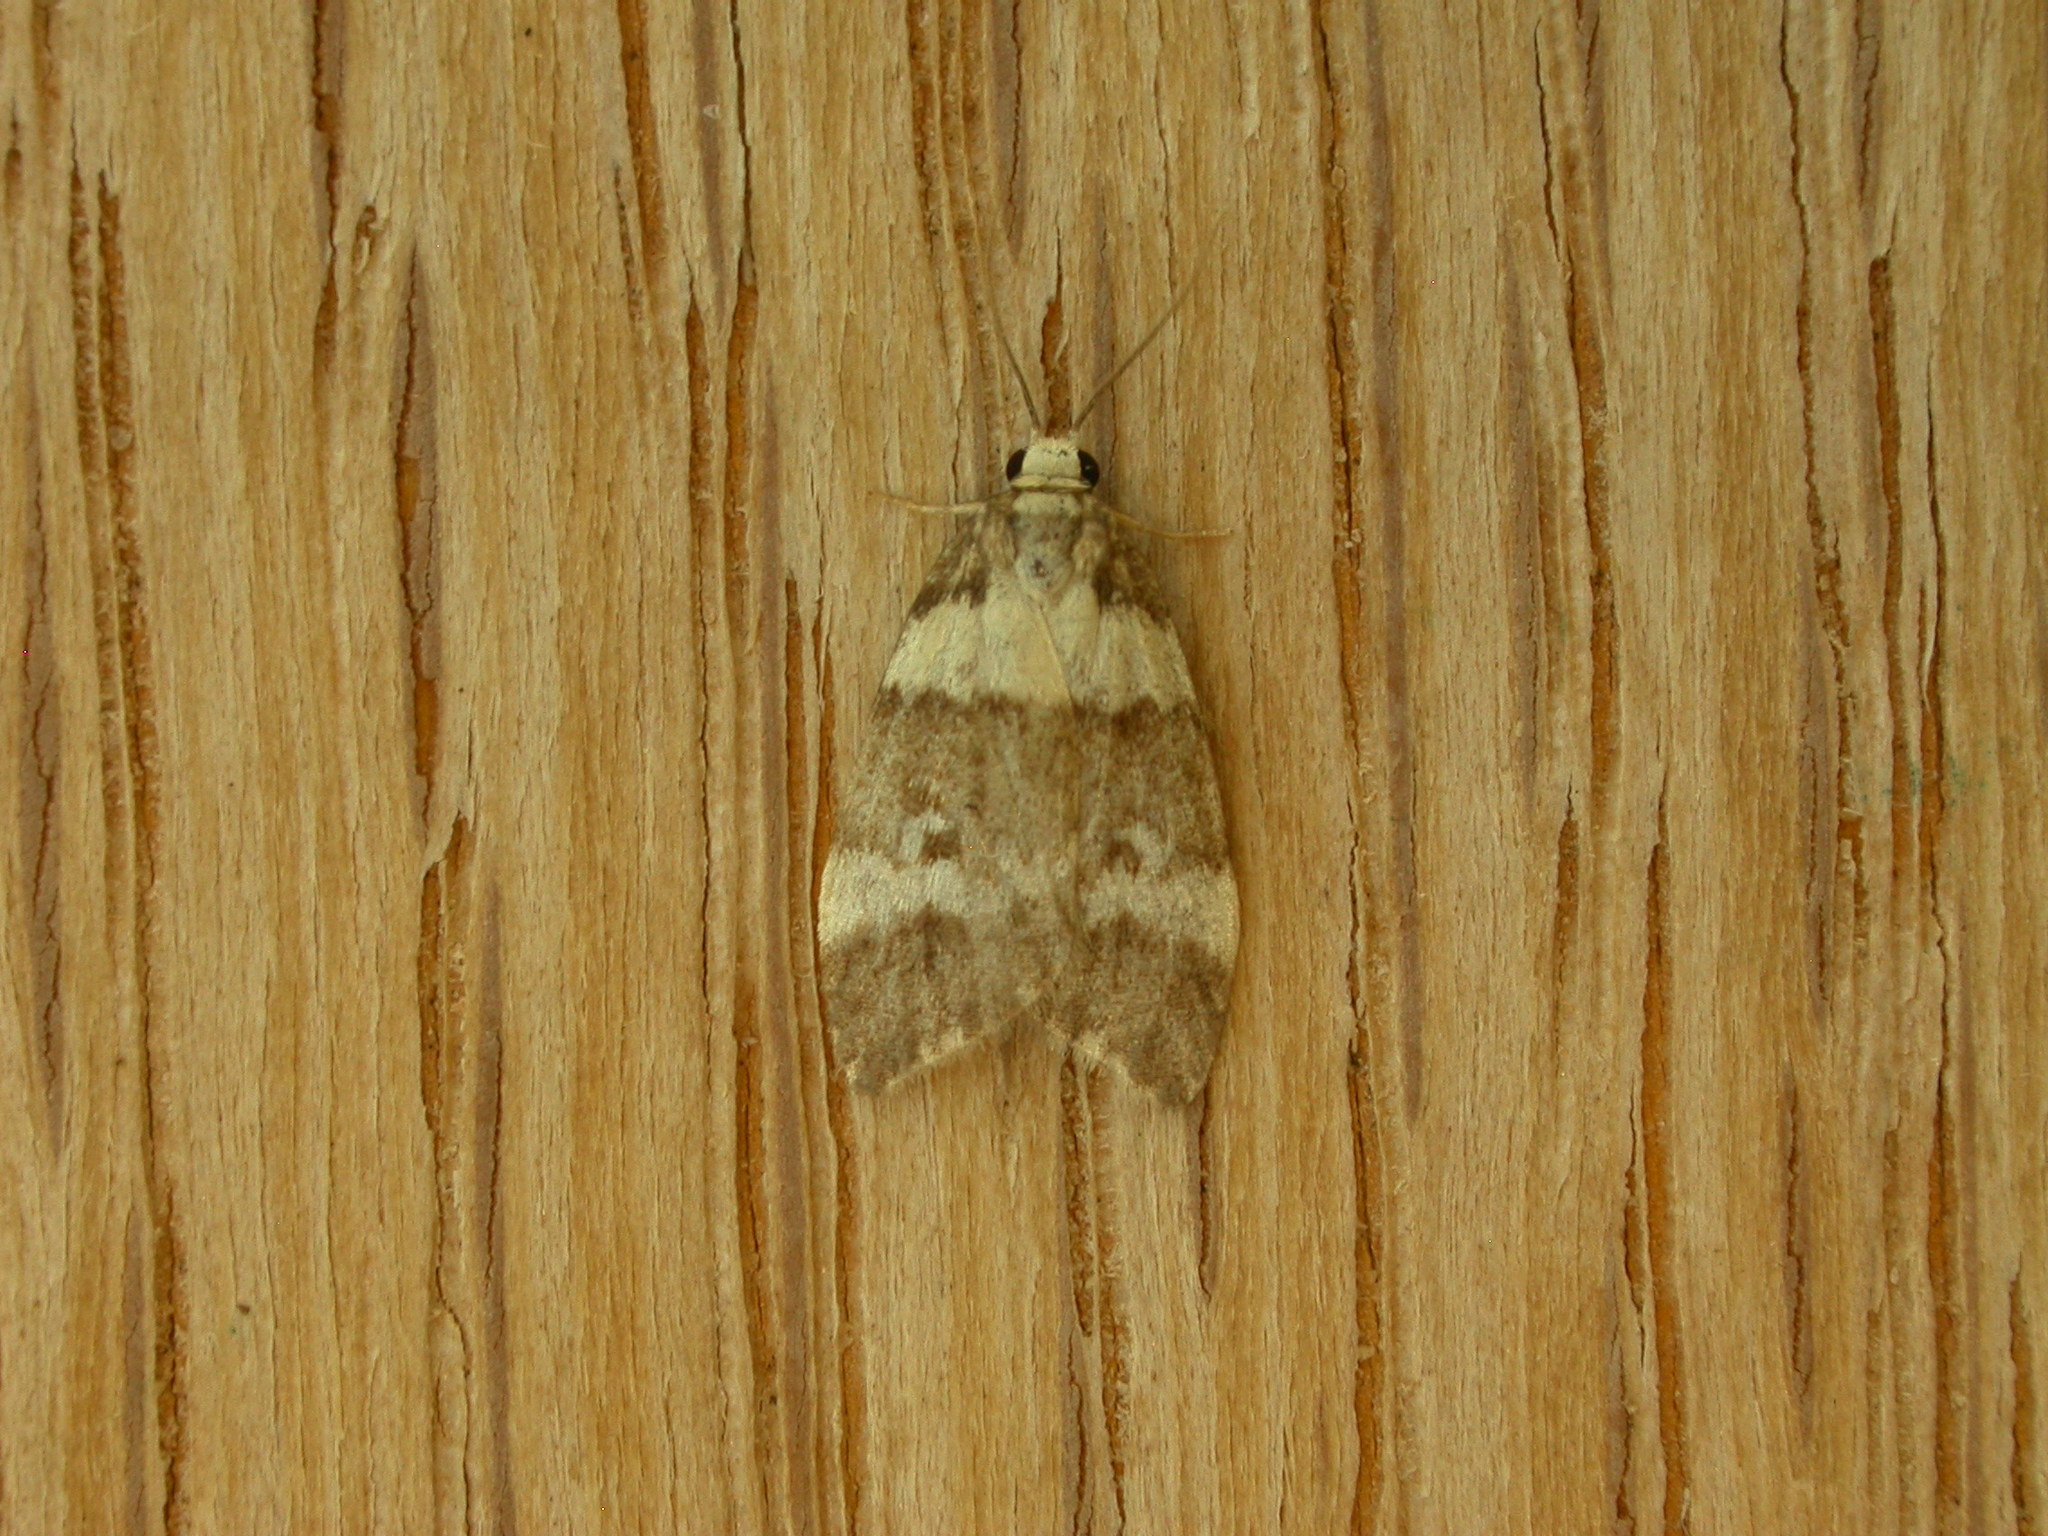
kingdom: Animalia
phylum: Arthropoda
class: Insecta
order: Lepidoptera
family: Erebidae
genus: Halone
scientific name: Halone sejuncta
